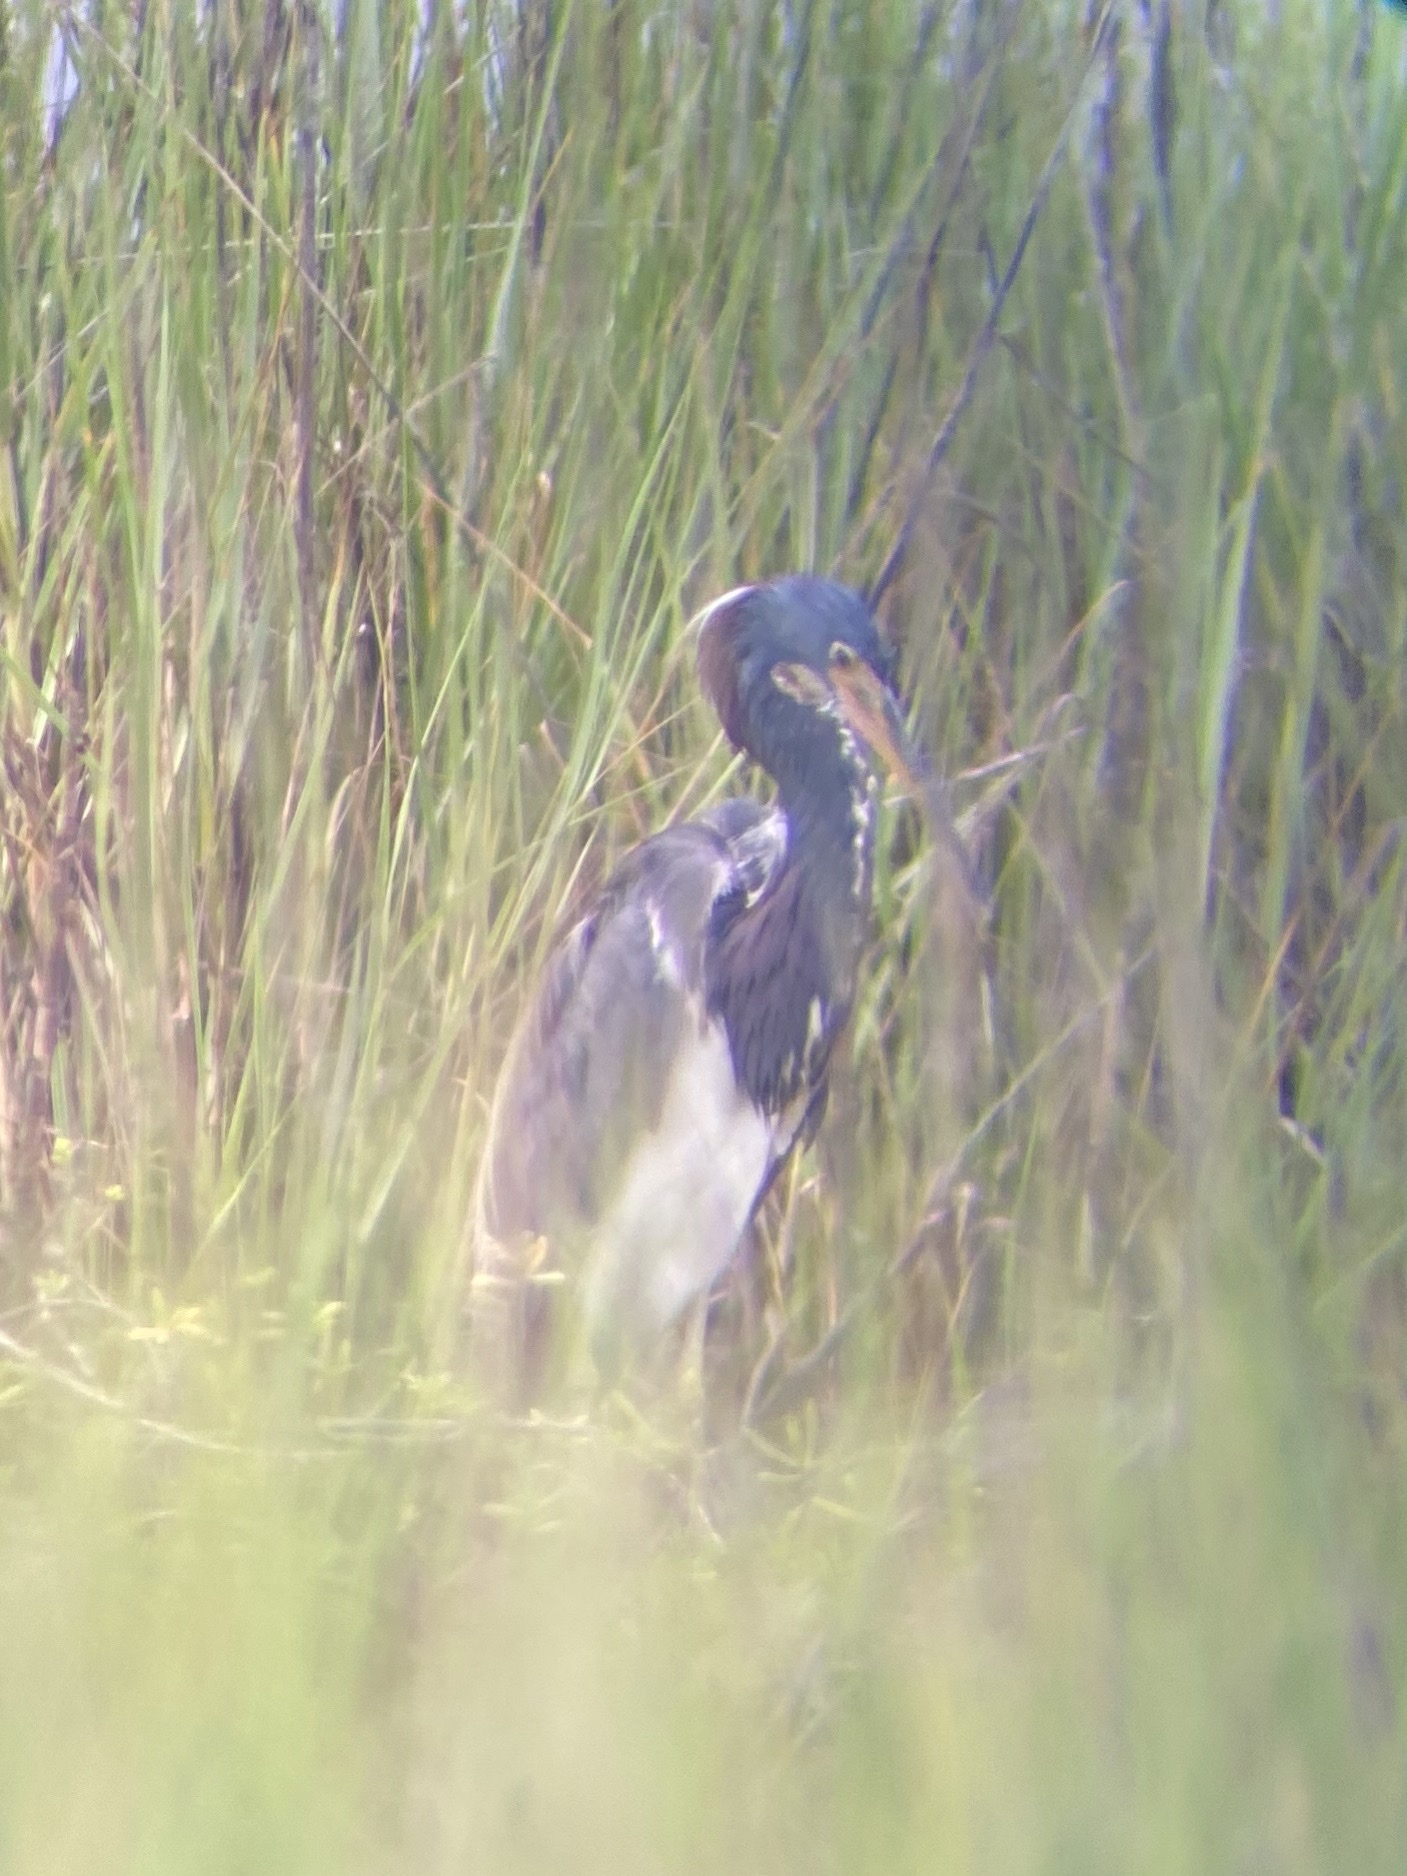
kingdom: Animalia
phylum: Chordata
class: Aves
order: Pelecaniformes
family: Ardeidae
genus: Egretta
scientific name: Egretta tricolor
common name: Tricolored heron
